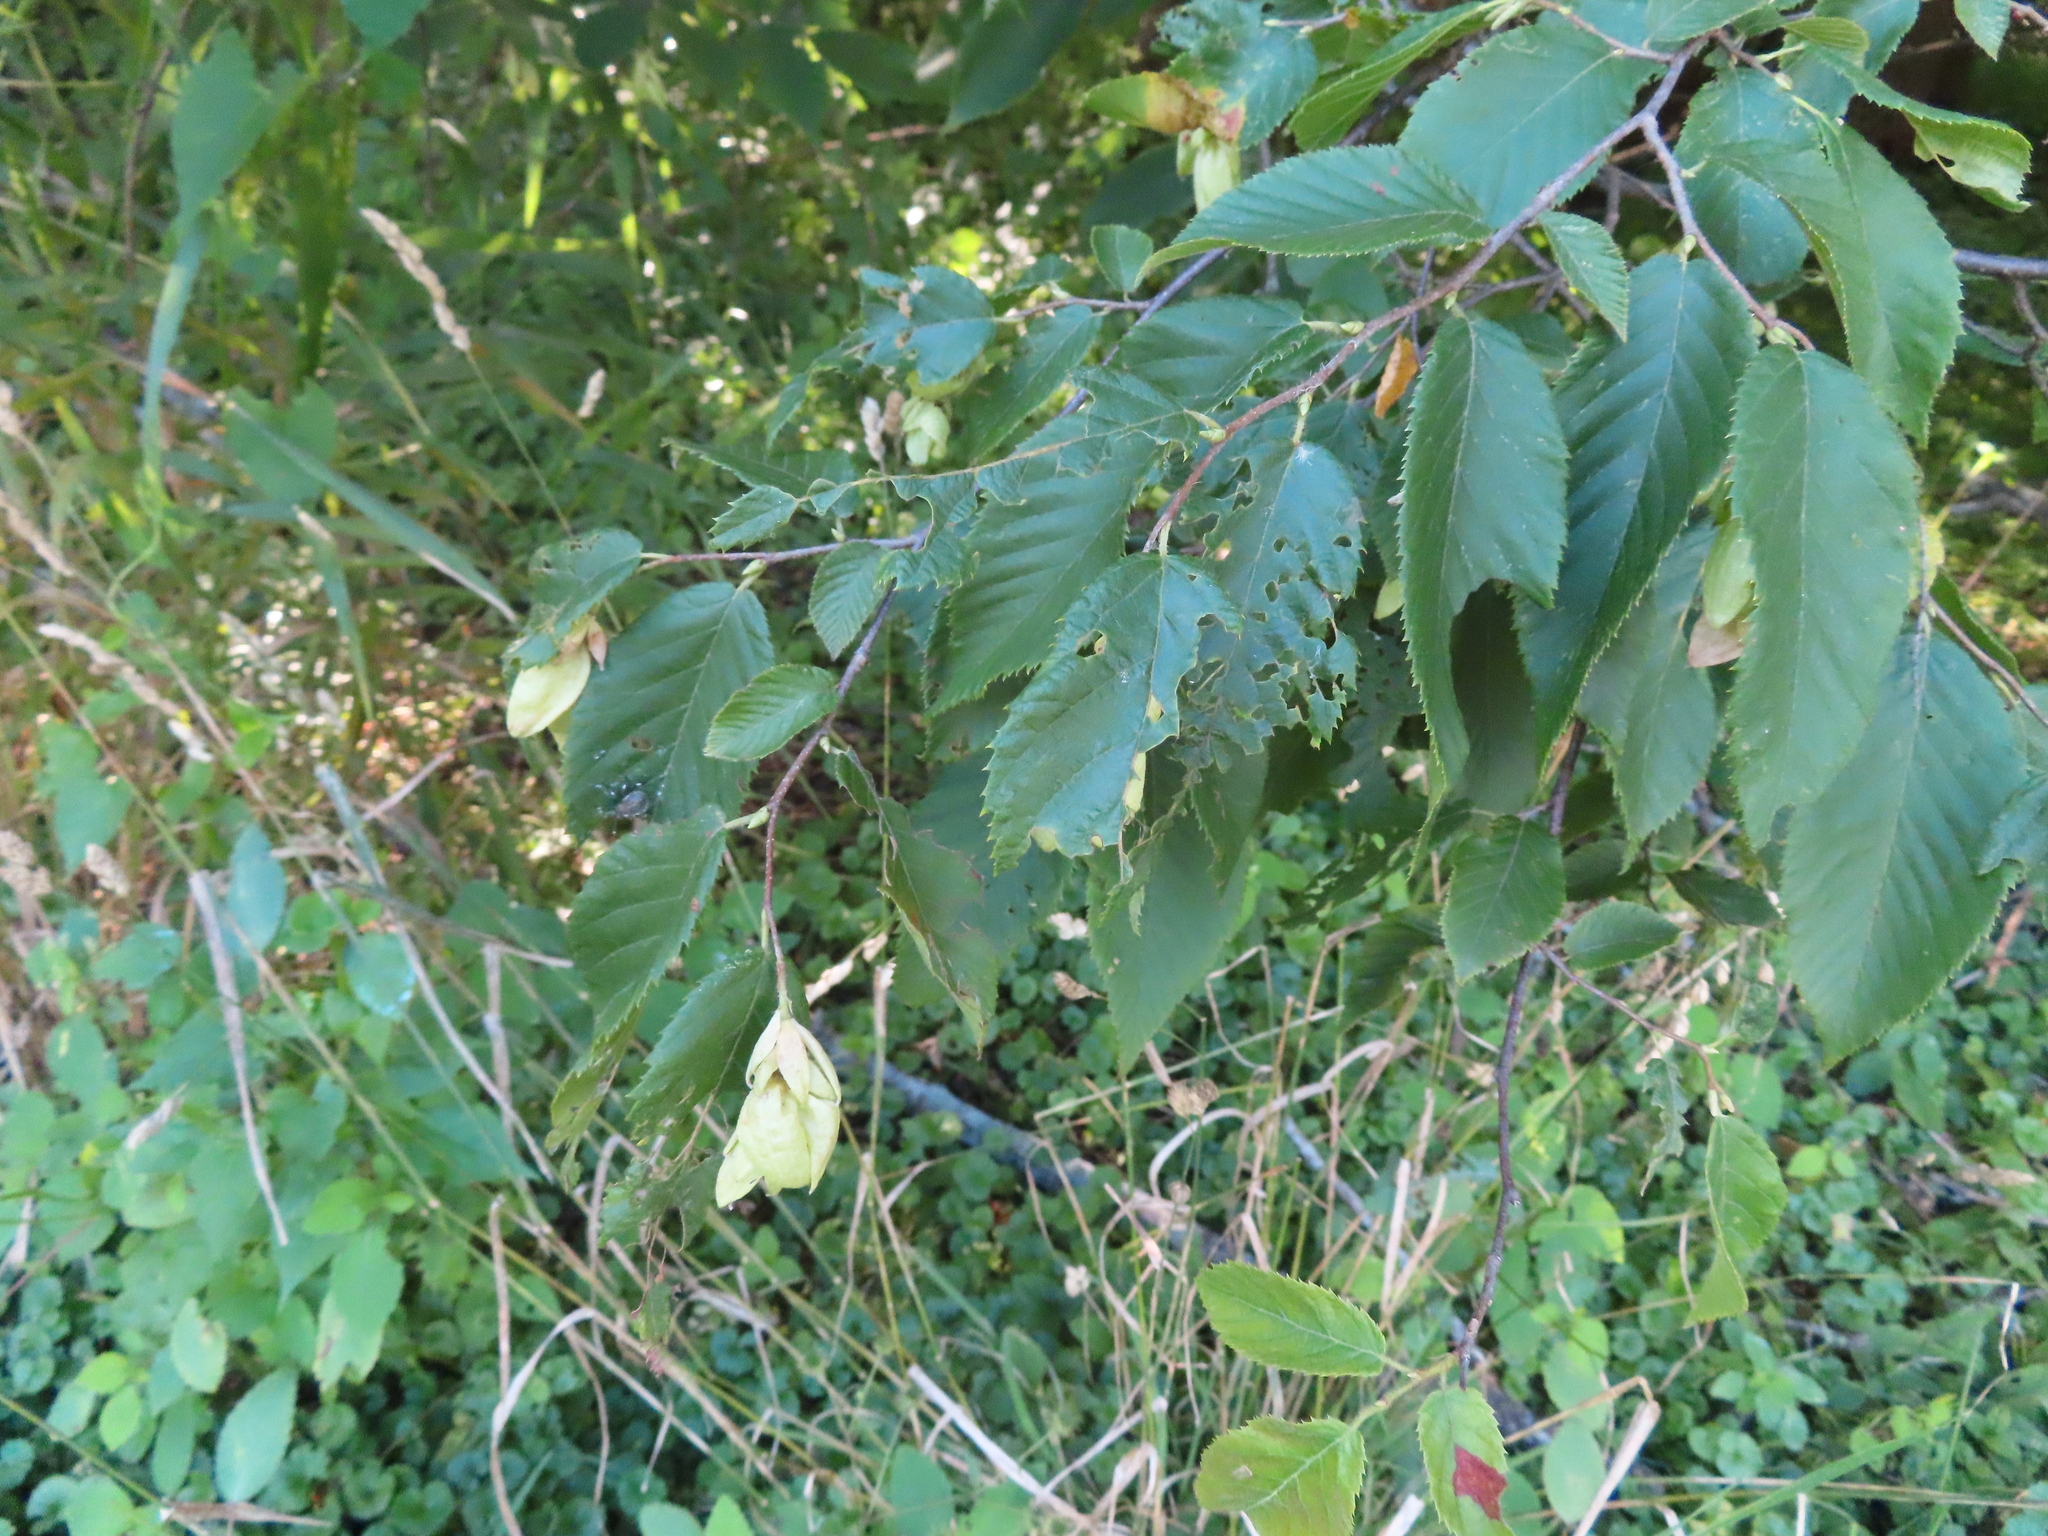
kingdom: Plantae
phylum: Tracheophyta
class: Magnoliopsida
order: Fagales
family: Betulaceae
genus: Ostrya
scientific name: Ostrya virginiana
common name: Ironwood
